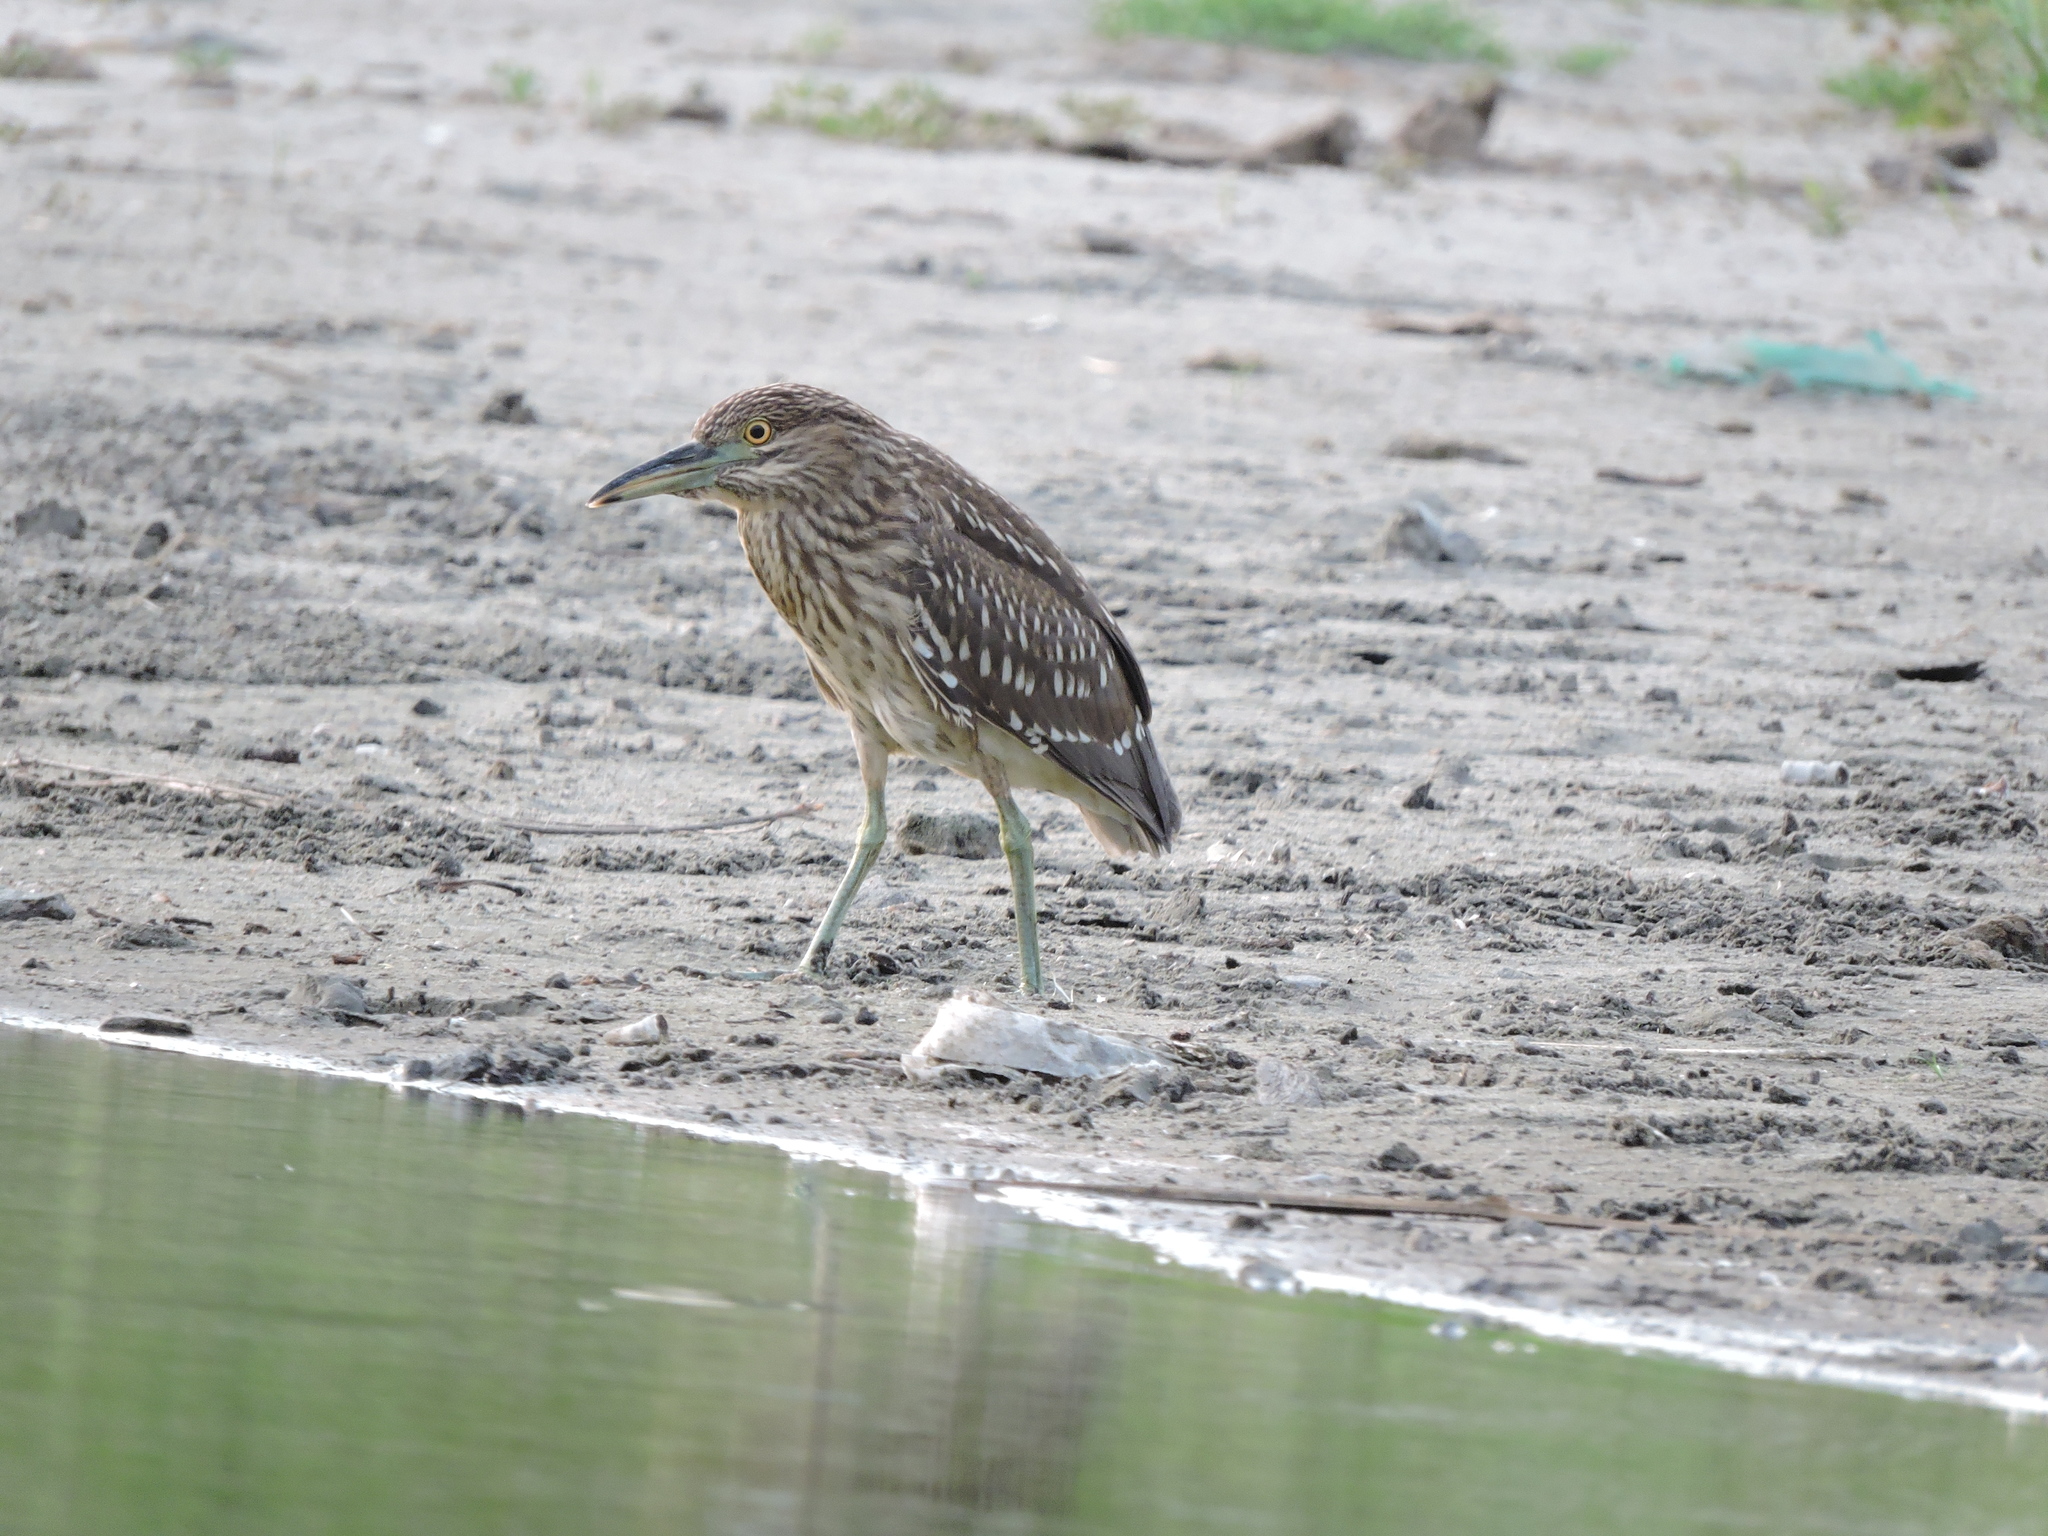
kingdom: Animalia
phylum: Chordata
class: Aves
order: Pelecaniformes
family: Ardeidae
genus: Nycticorax
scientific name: Nycticorax nycticorax
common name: Black-crowned night heron
